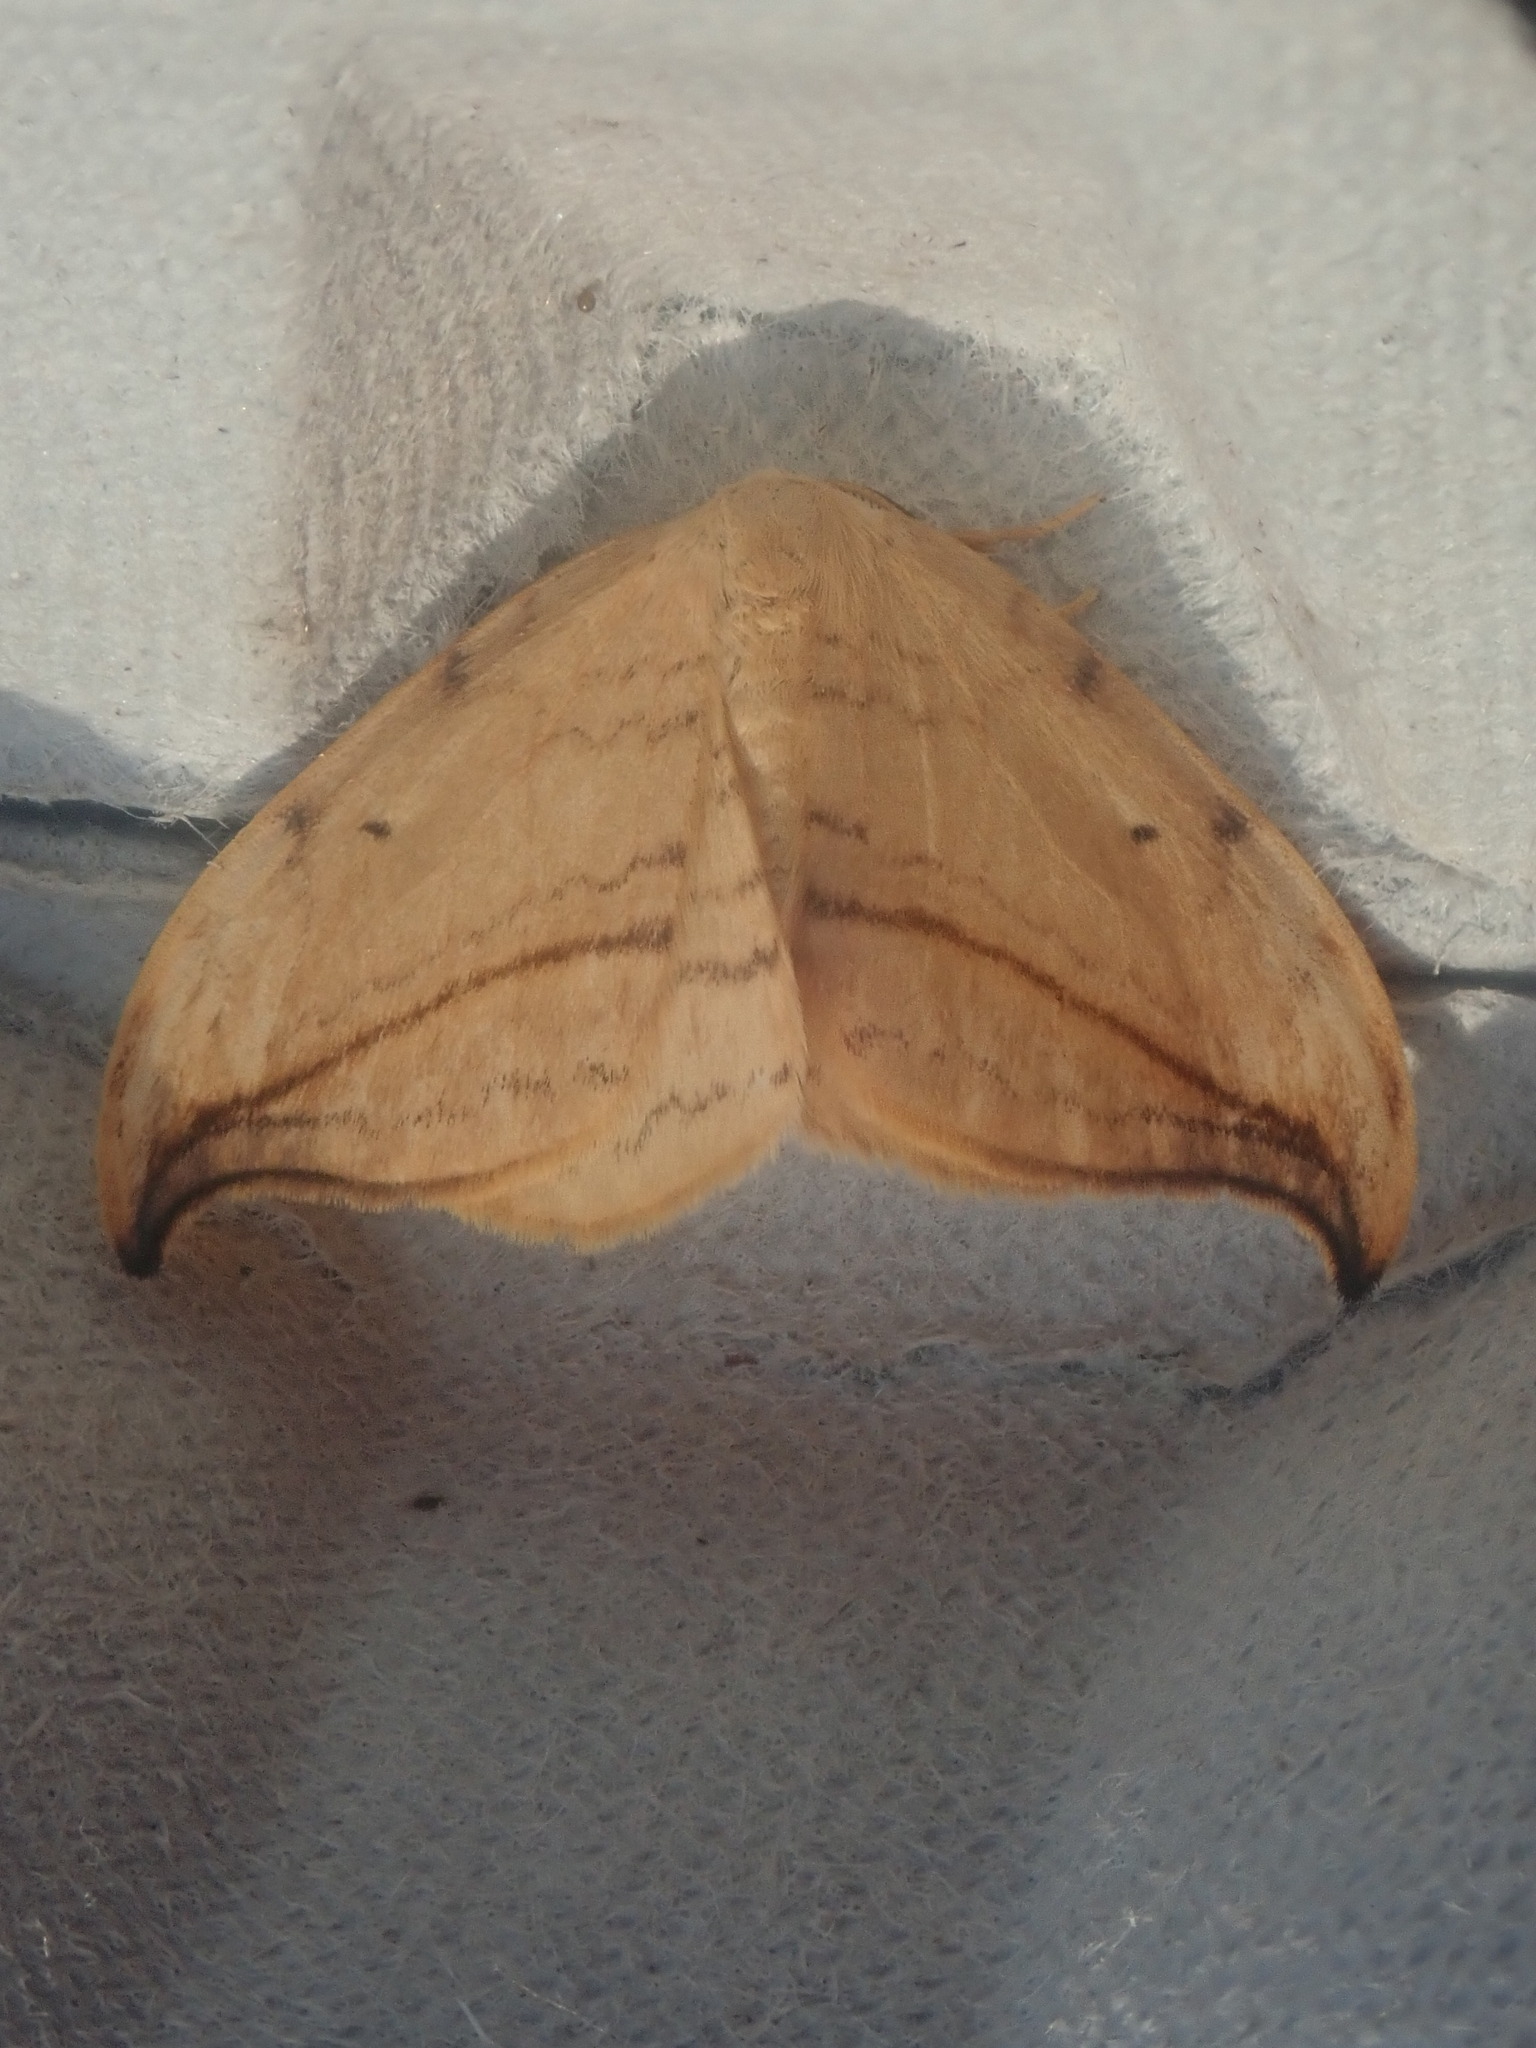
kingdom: Animalia
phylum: Arthropoda
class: Insecta
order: Lepidoptera
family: Drepanidae
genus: Drepana
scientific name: Drepana arcuata
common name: Arched hooktip moth
